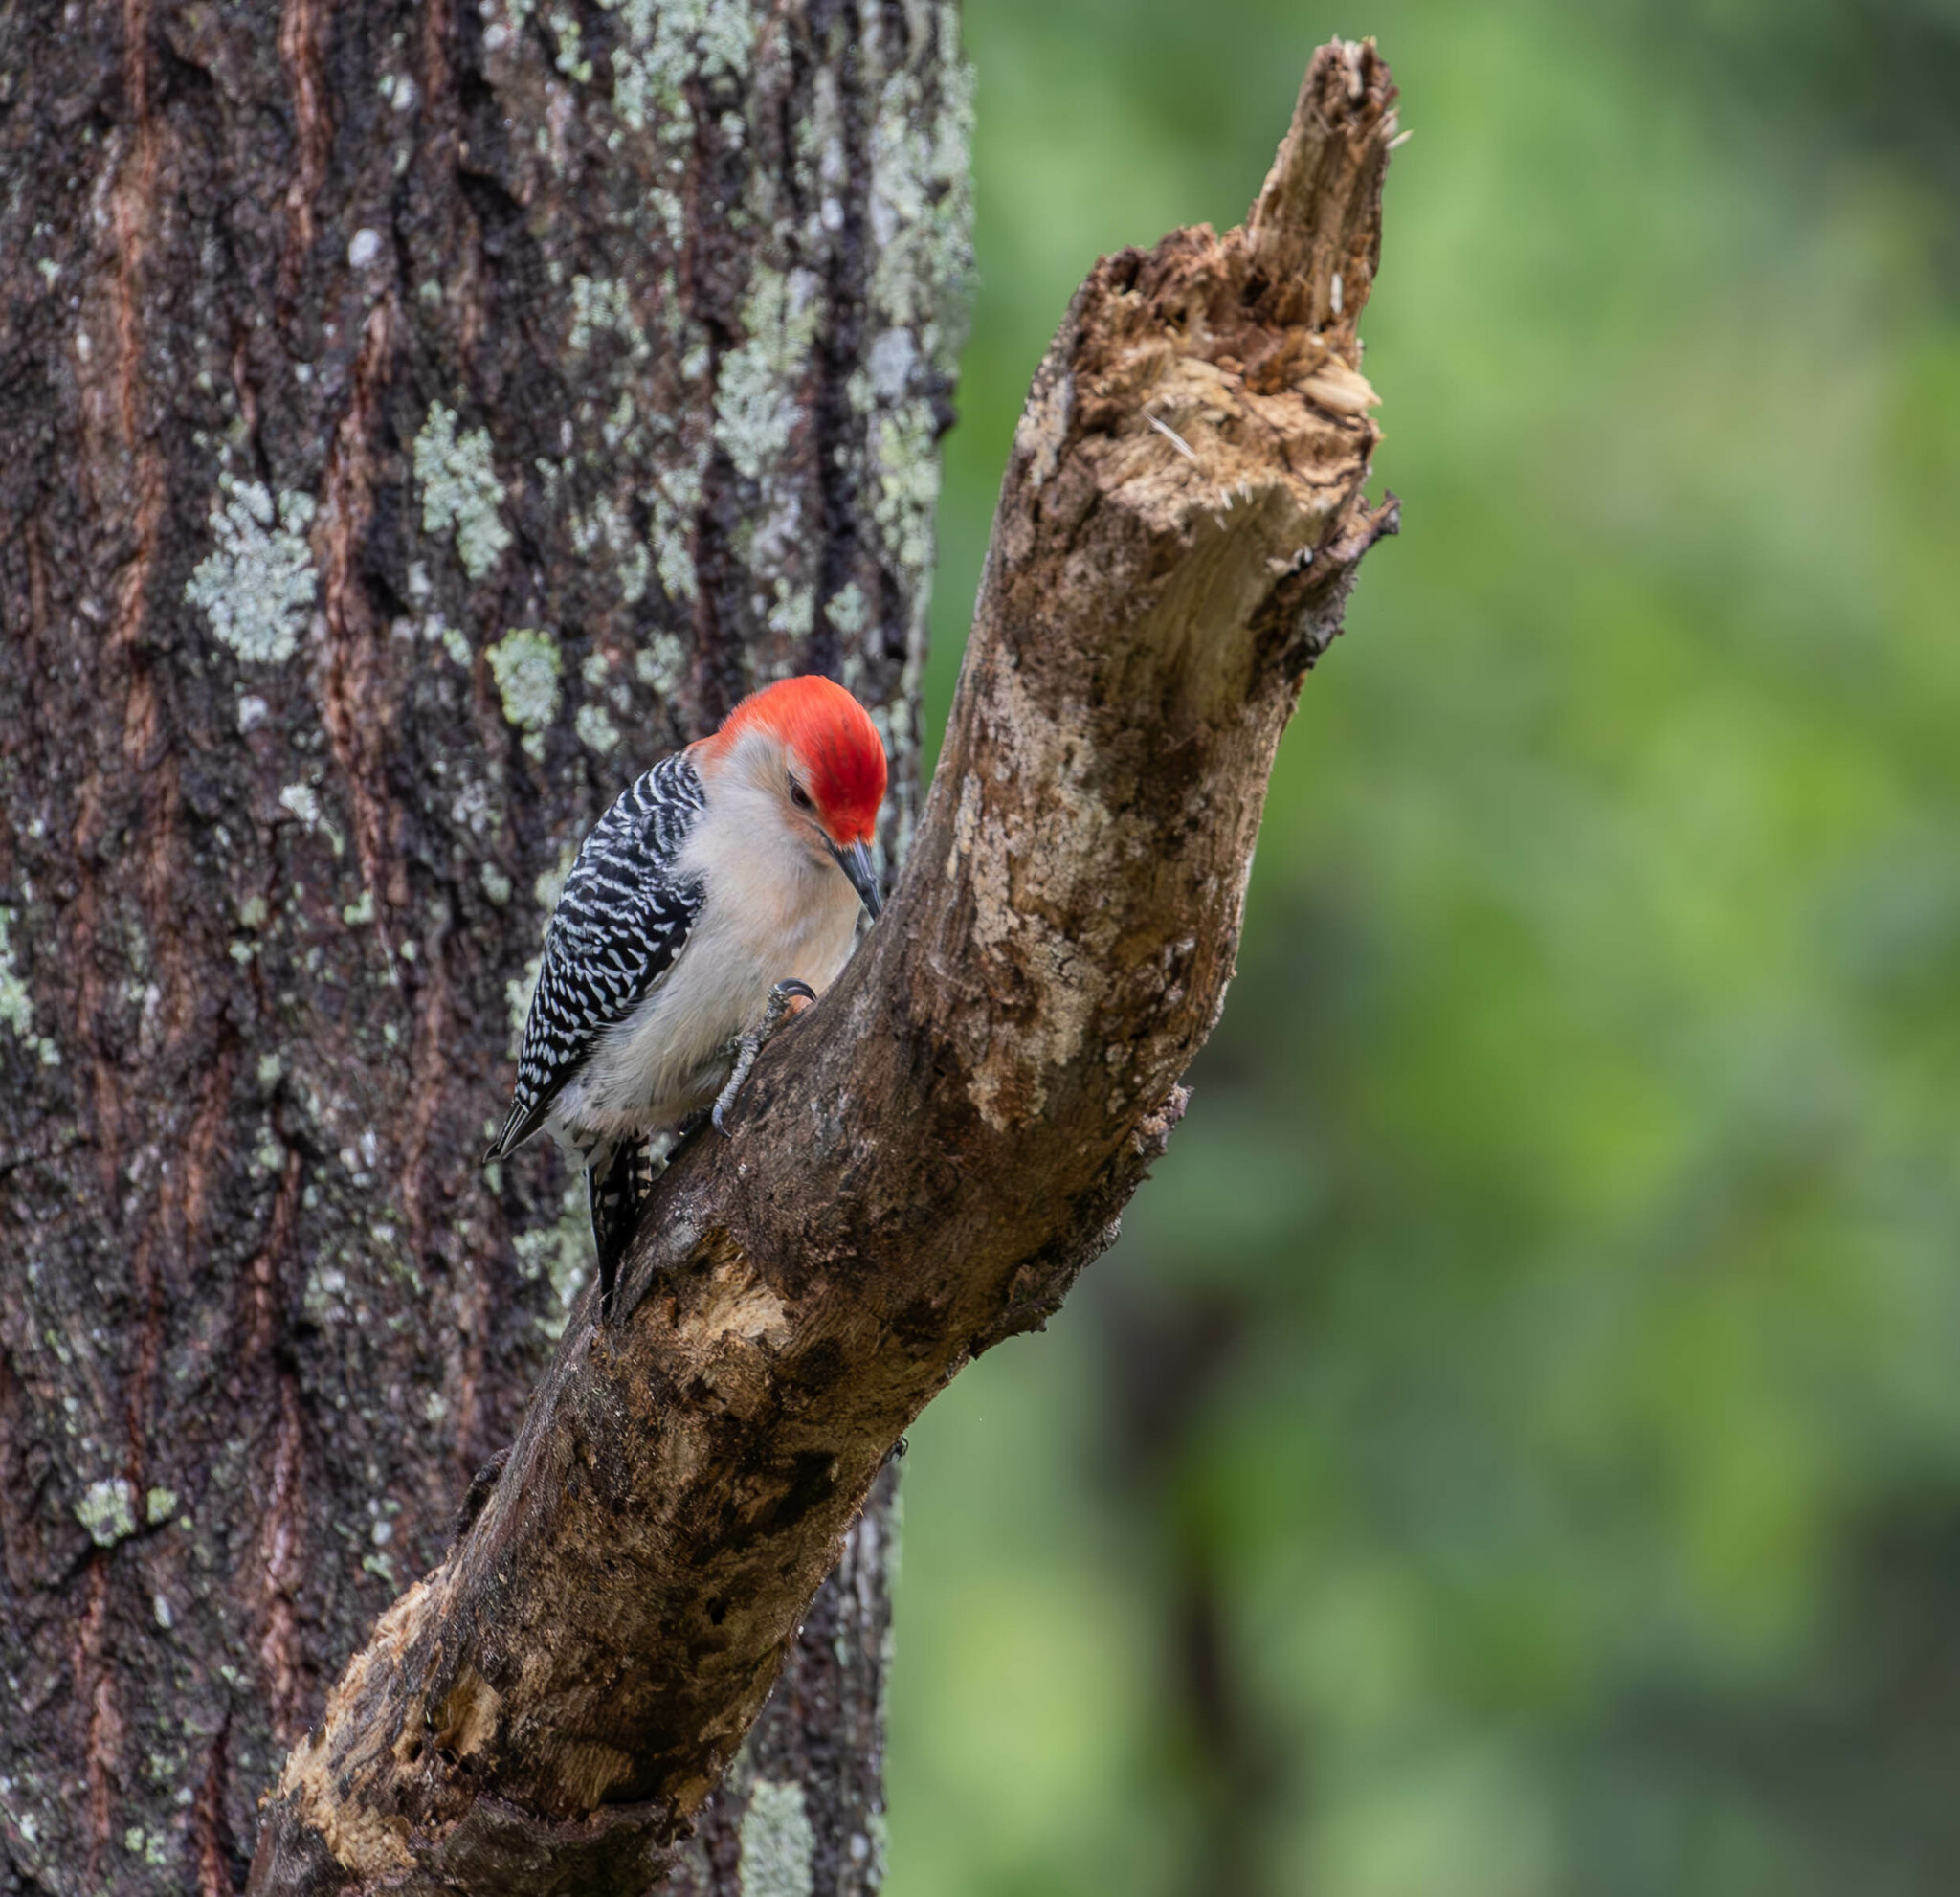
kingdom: Animalia
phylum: Chordata
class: Aves
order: Piciformes
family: Picidae
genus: Melanerpes
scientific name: Melanerpes carolinus
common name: Red-bellied woodpecker
